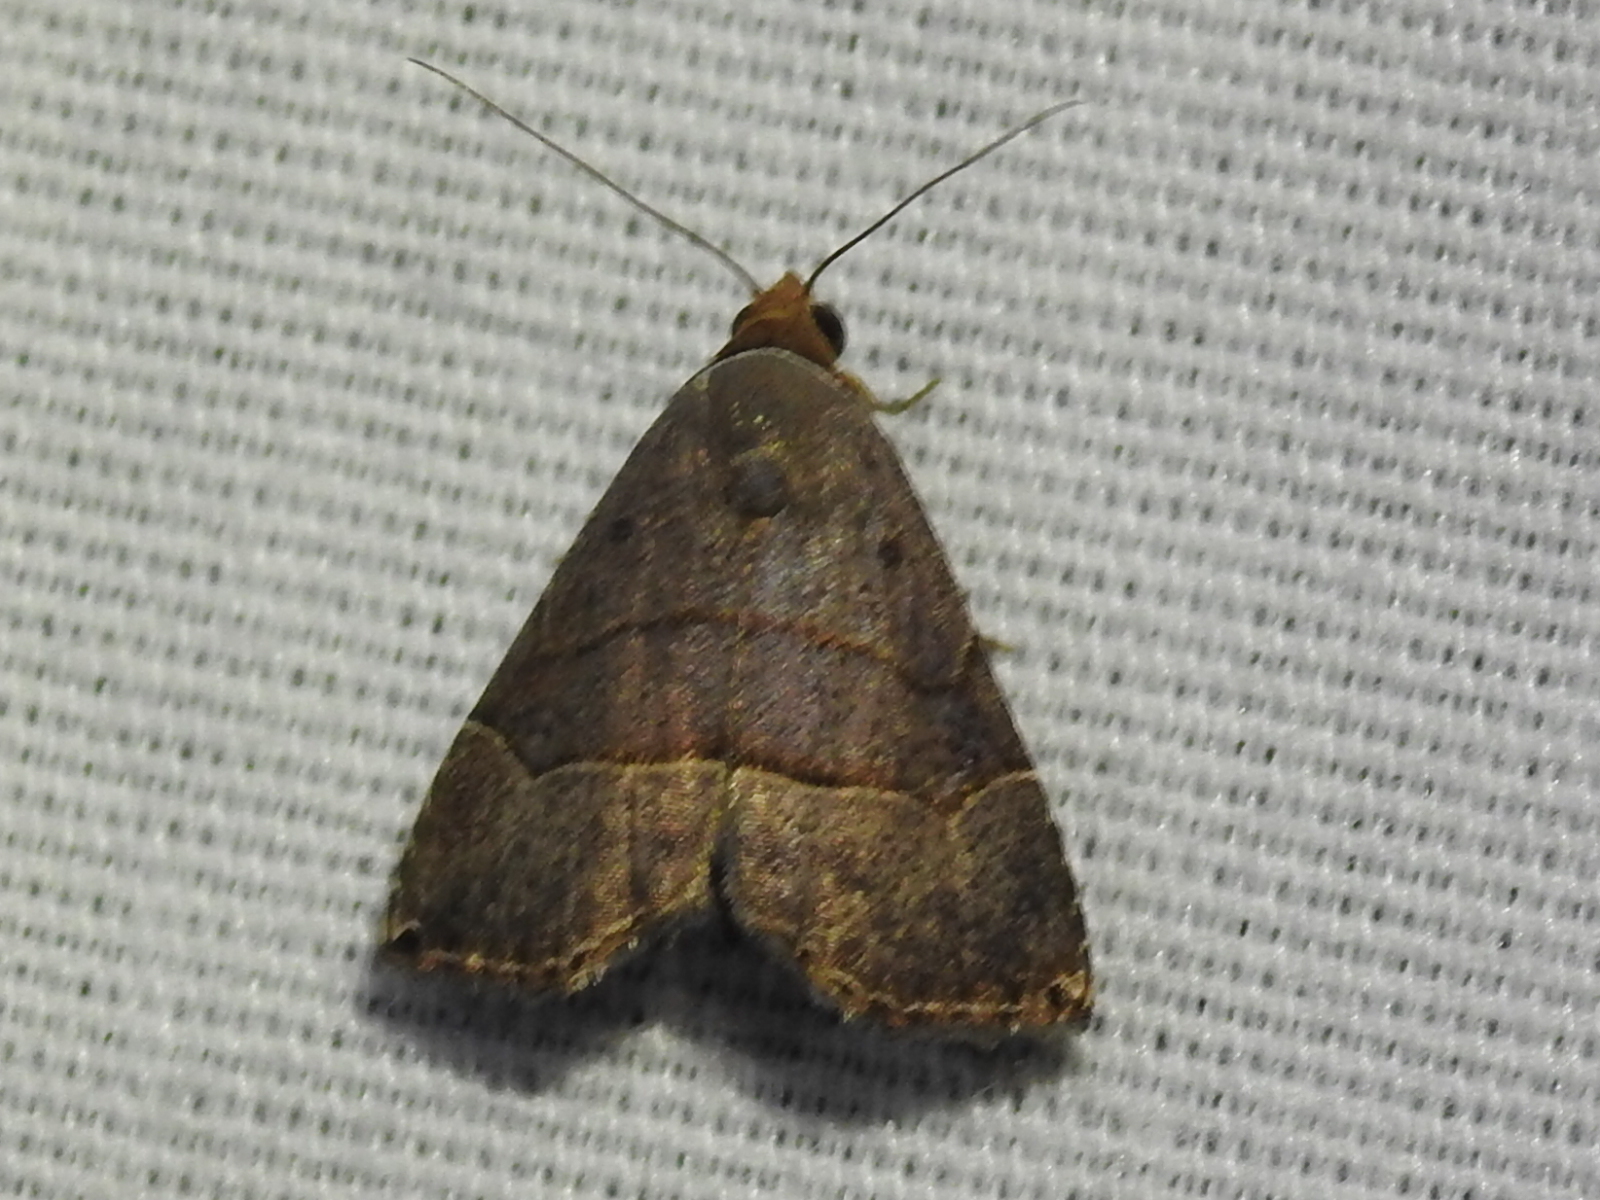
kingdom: Animalia
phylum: Arthropoda
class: Insecta
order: Lepidoptera
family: Noctuidae
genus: Abacena
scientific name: Abacena mundula
